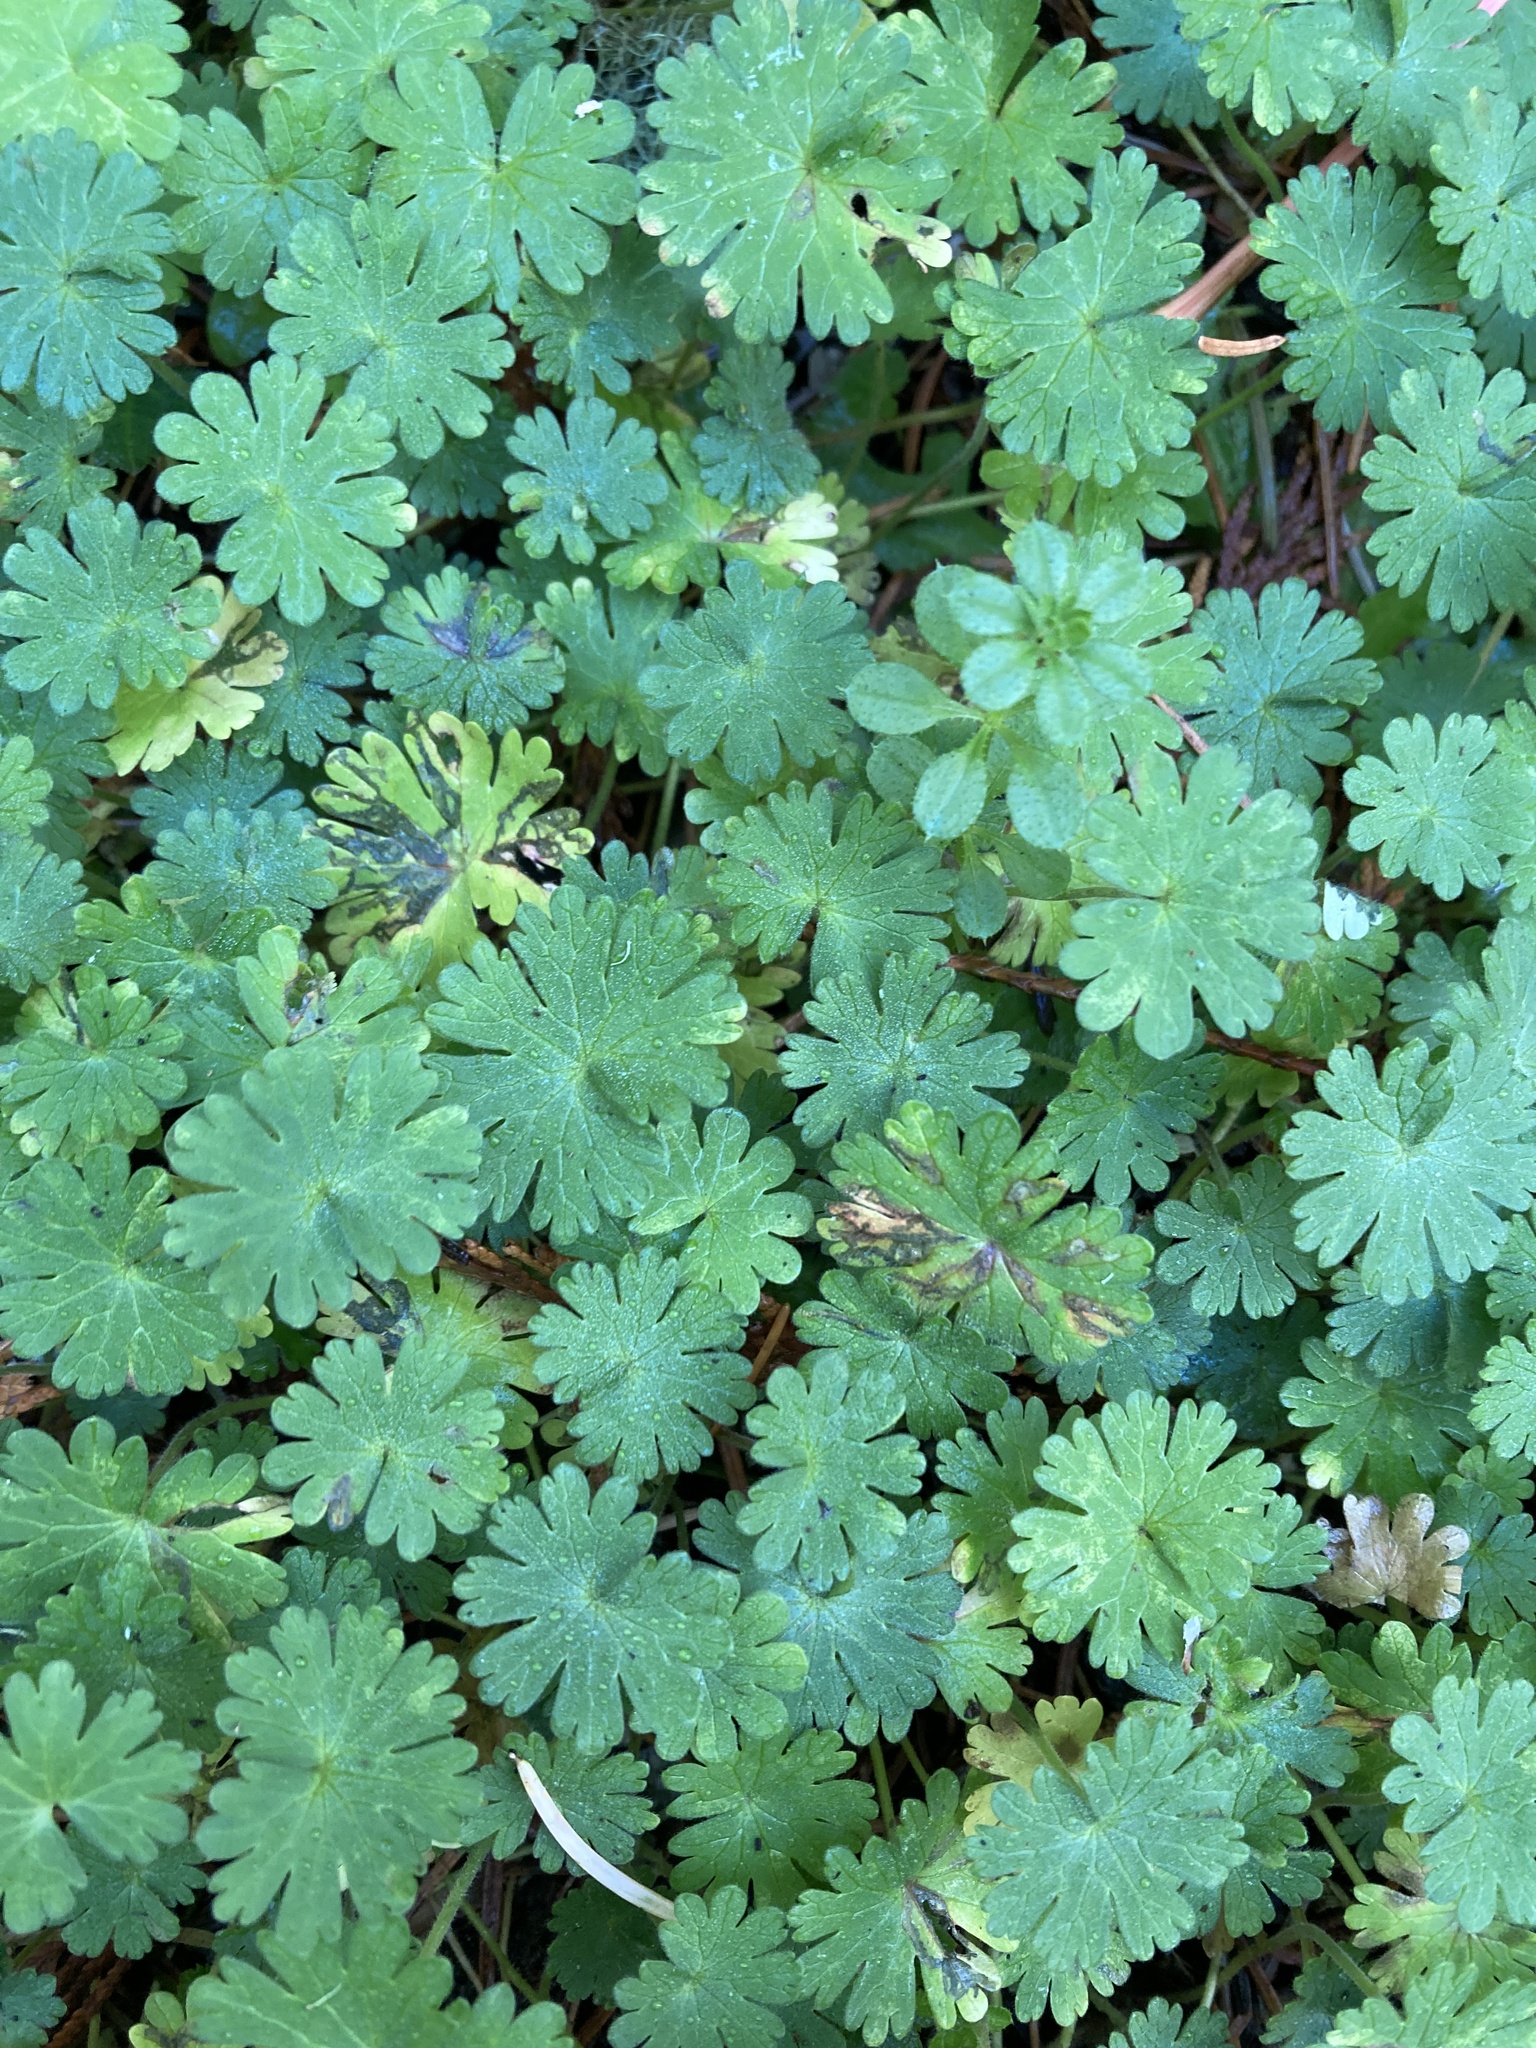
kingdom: Plantae
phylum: Tracheophyta
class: Magnoliopsida
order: Geraniales
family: Geraniaceae
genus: Geranium
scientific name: Geranium molle
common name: Dove's-foot crane's-bill
